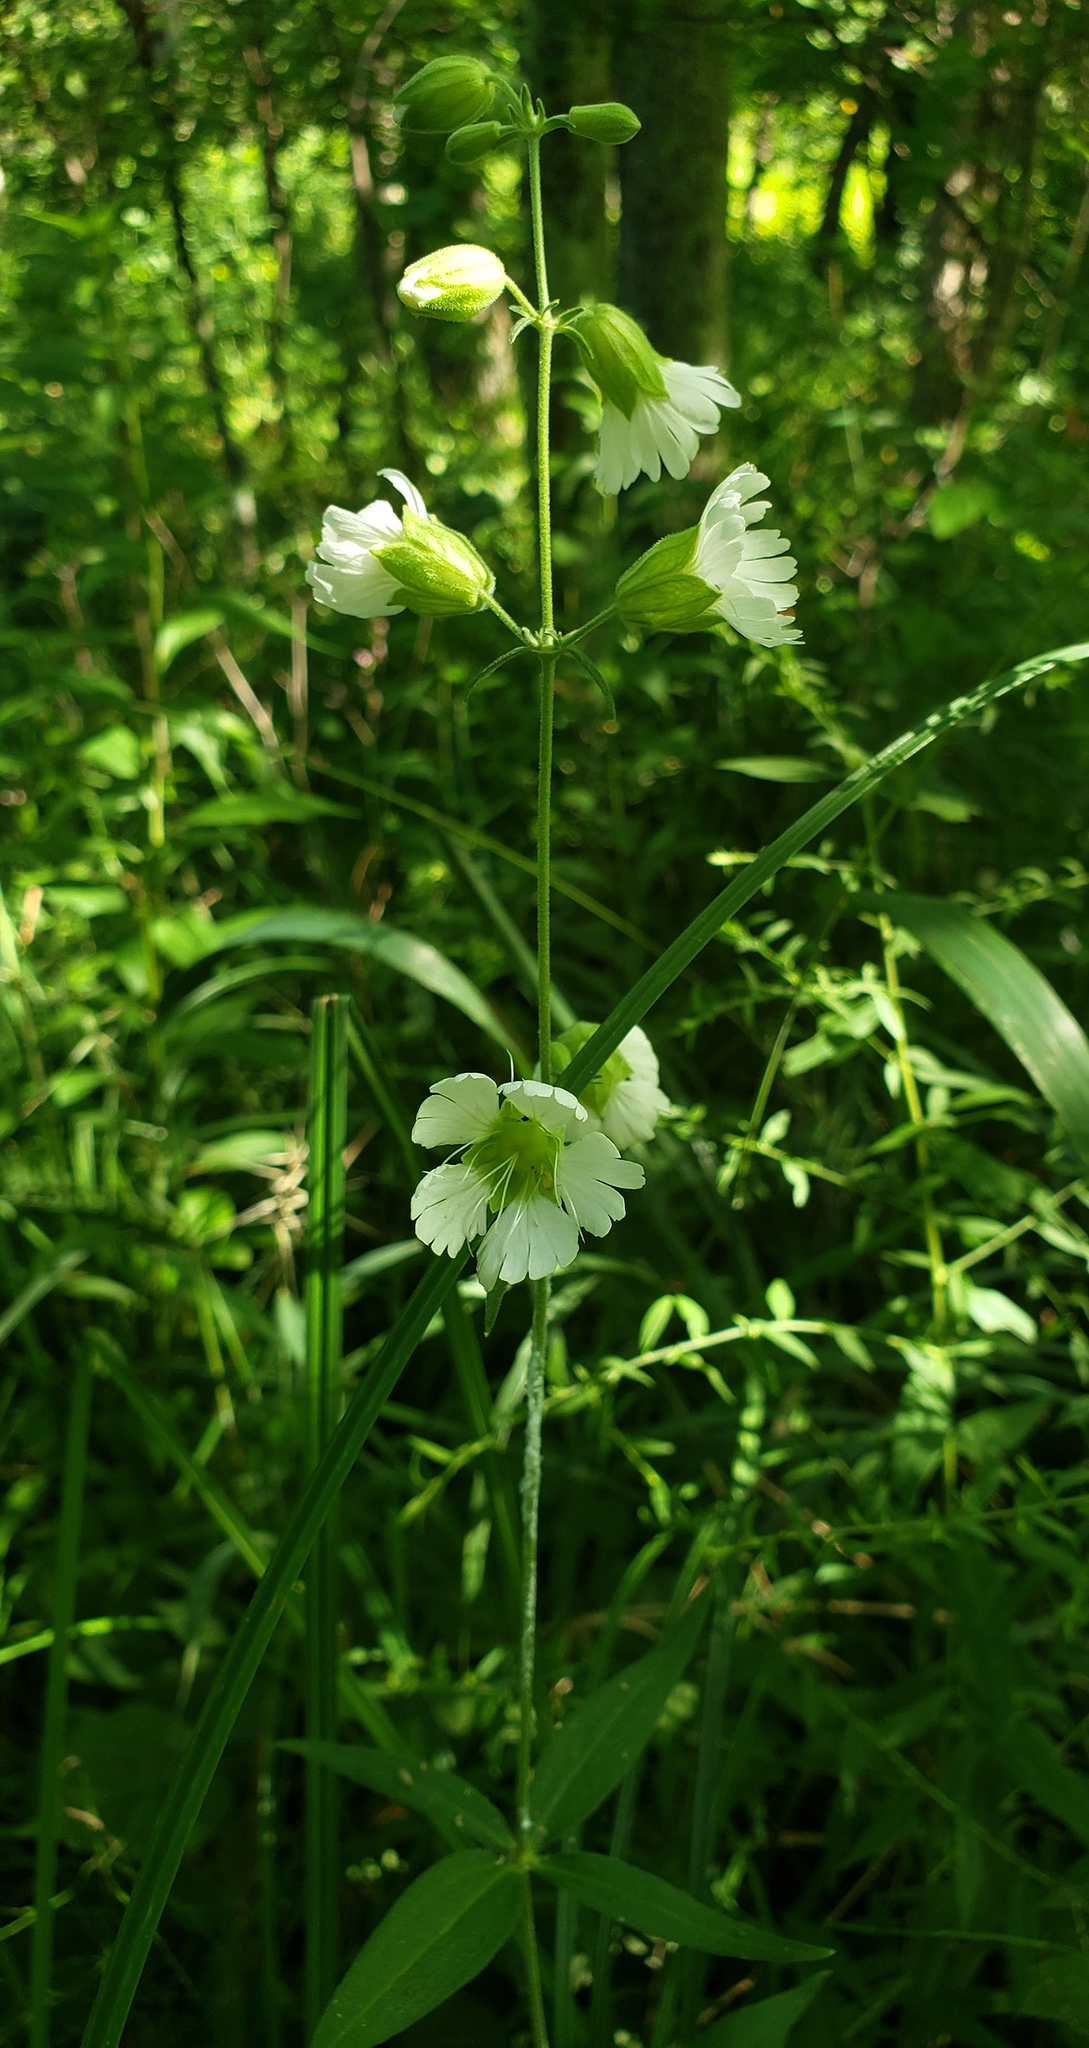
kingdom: Plantae
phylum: Tracheophyta
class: Magnoliopsida
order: Caryophyllales
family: Caryophyllaceae
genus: Silene
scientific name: Silene stellata
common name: Starry campion
